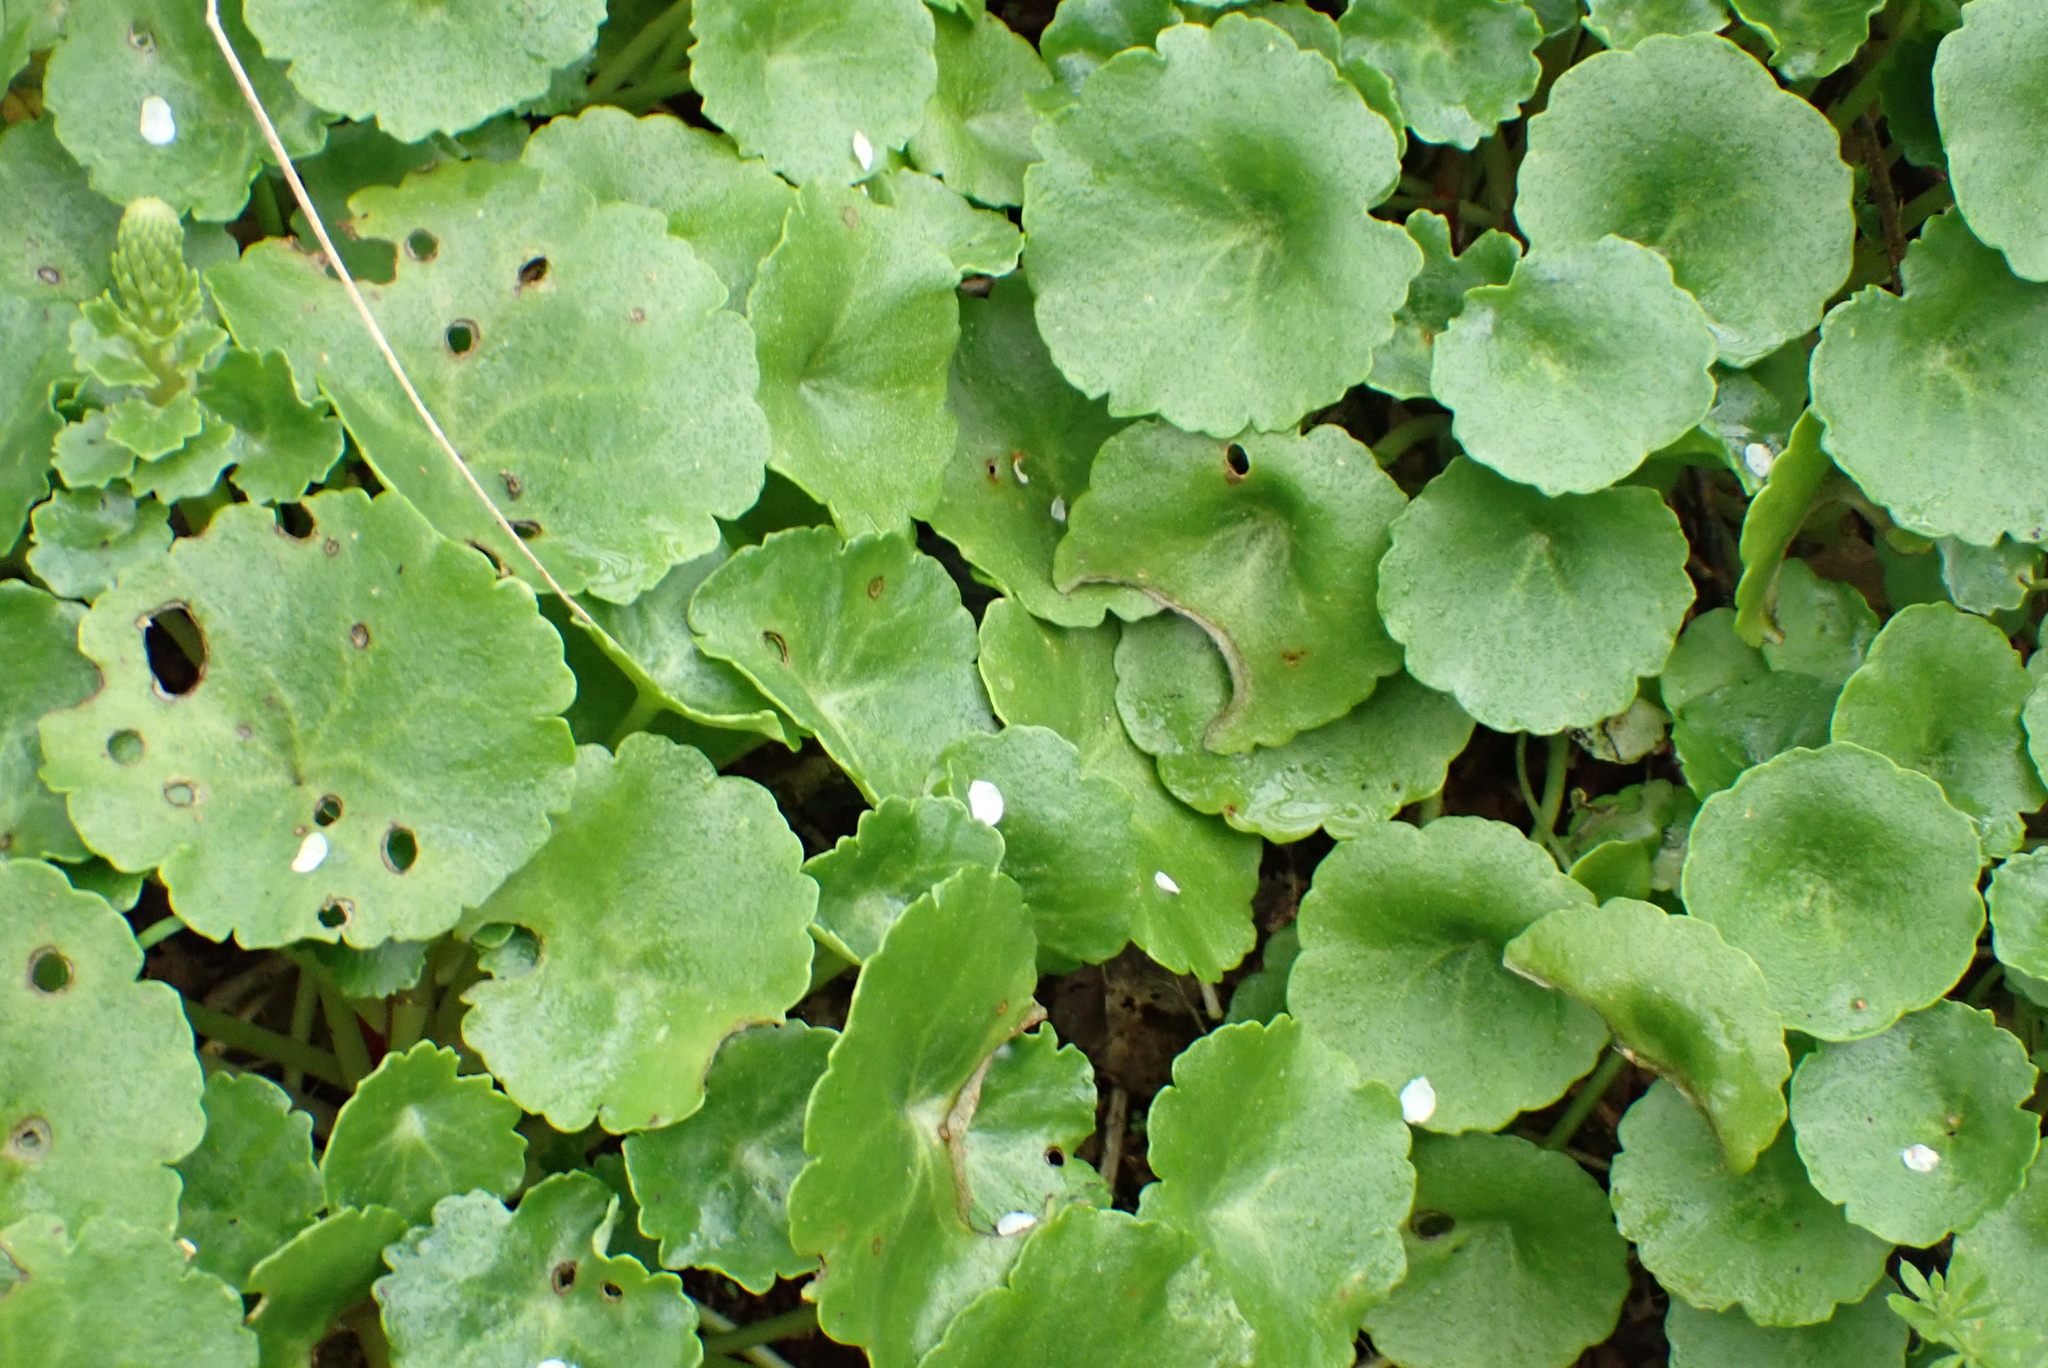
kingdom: Plantae
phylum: Tracheophyta
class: Magnoliopsida
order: Saxifragales
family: Crassulaceae
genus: Umbilicus
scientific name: Umbilicus rupestris
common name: Navelwort
